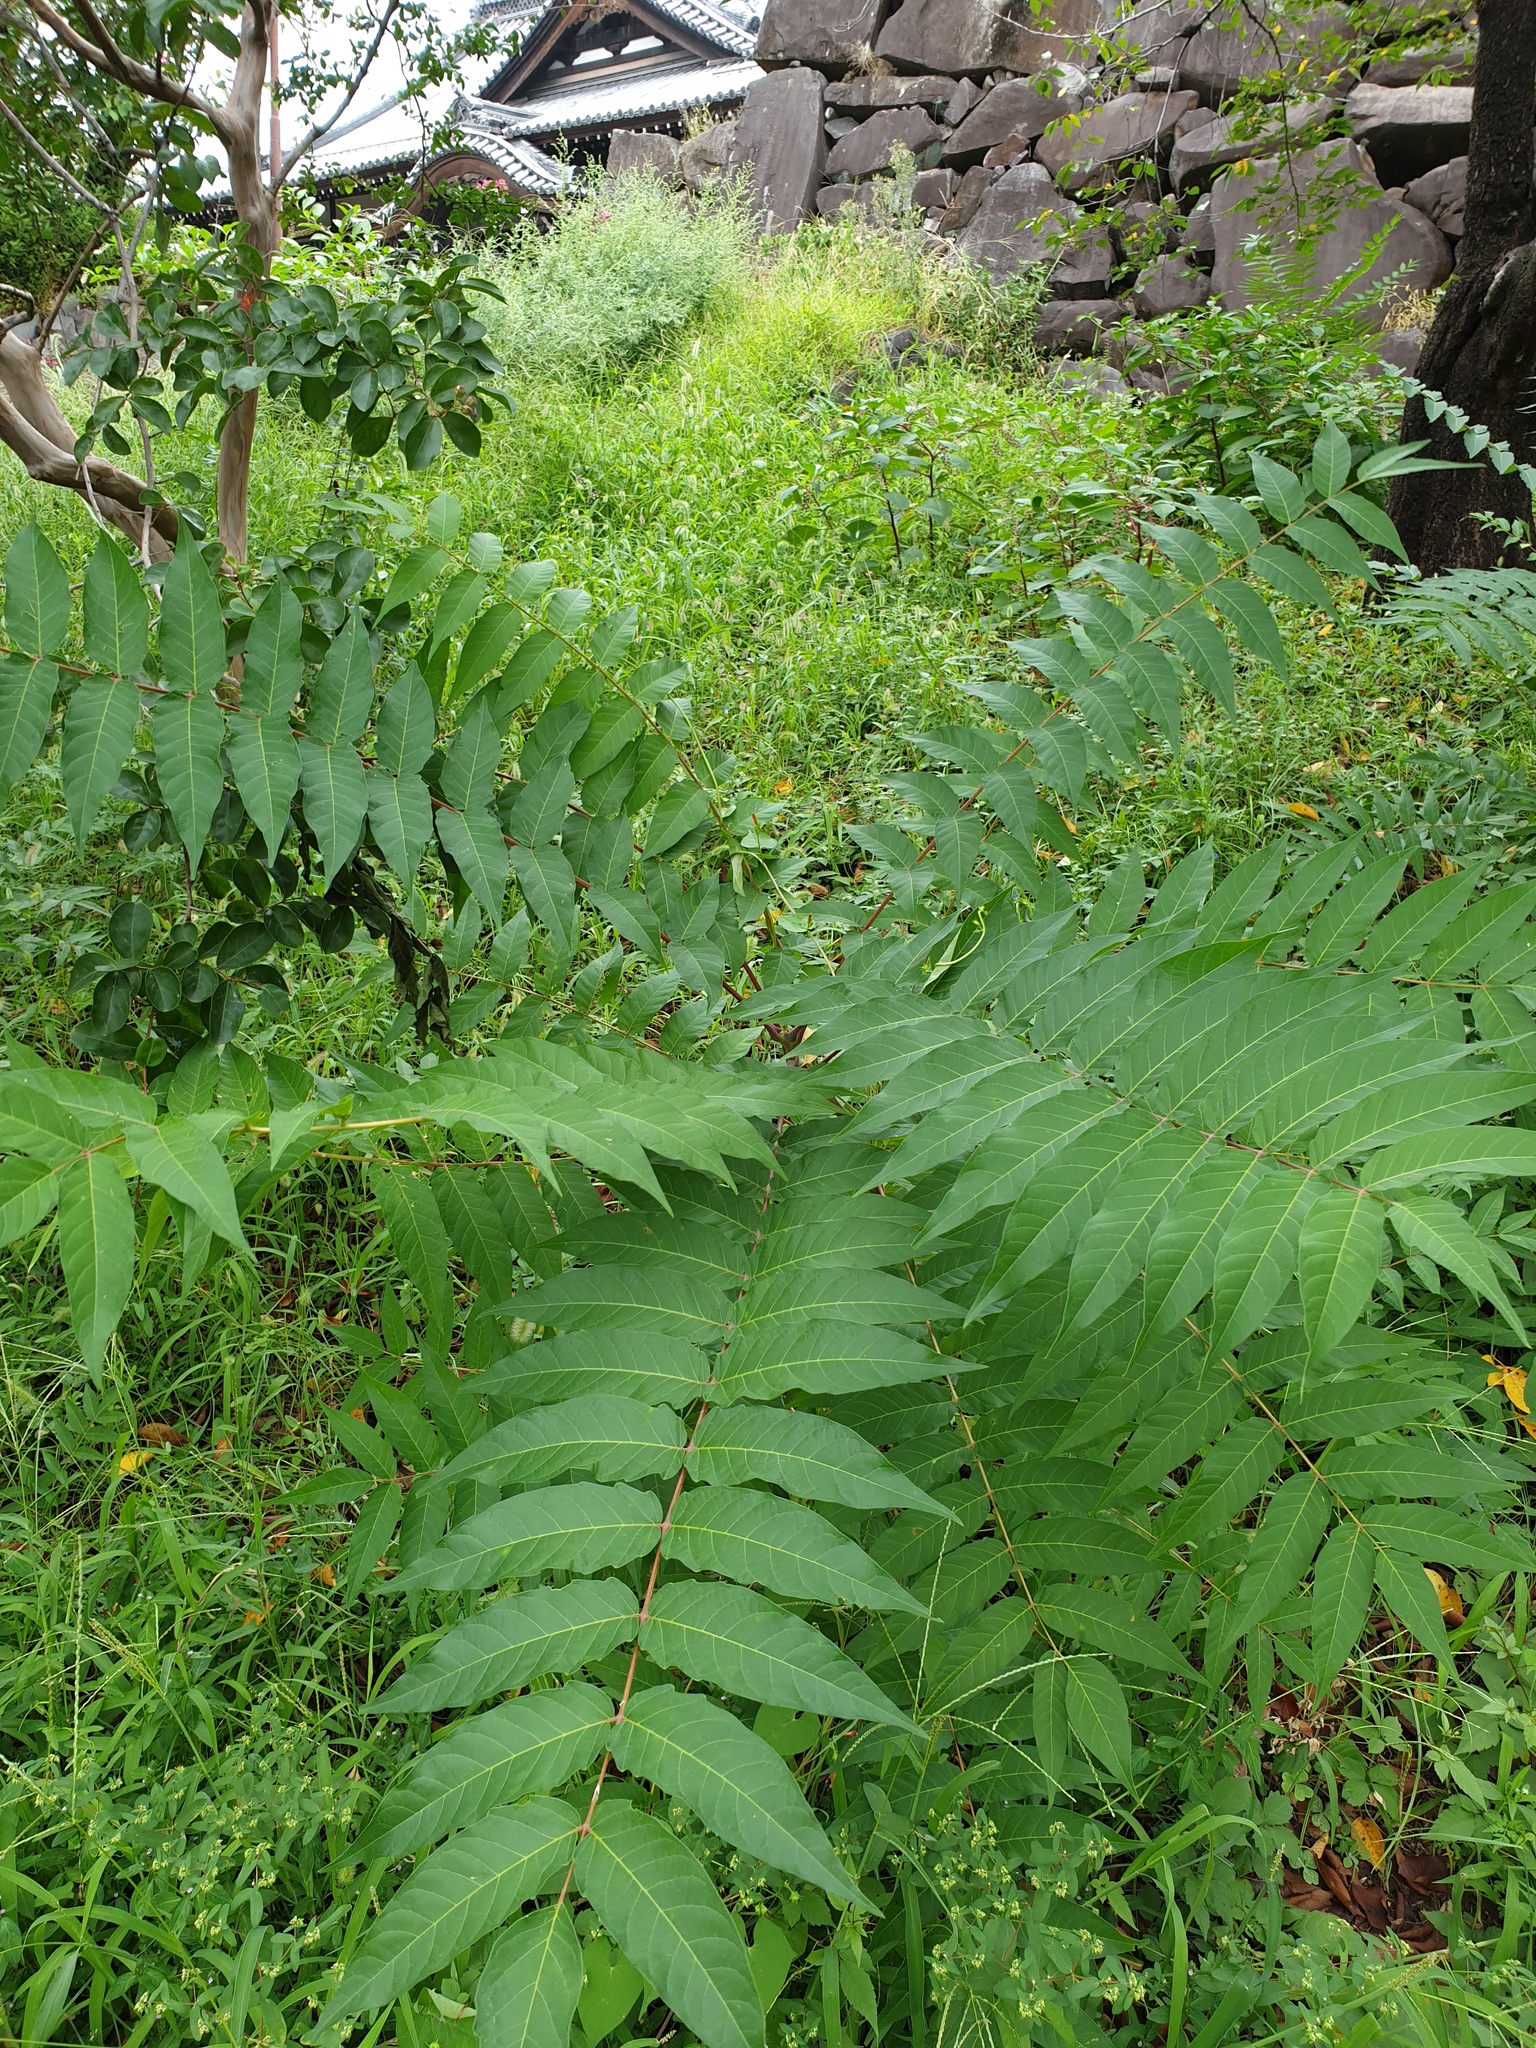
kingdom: Plantae
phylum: Tracheophyta
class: Magnoliopsida
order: Sapindales
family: Simaroubaceae
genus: Ailanthus
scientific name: Ailanthus altissima
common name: Tree-of-heaven
